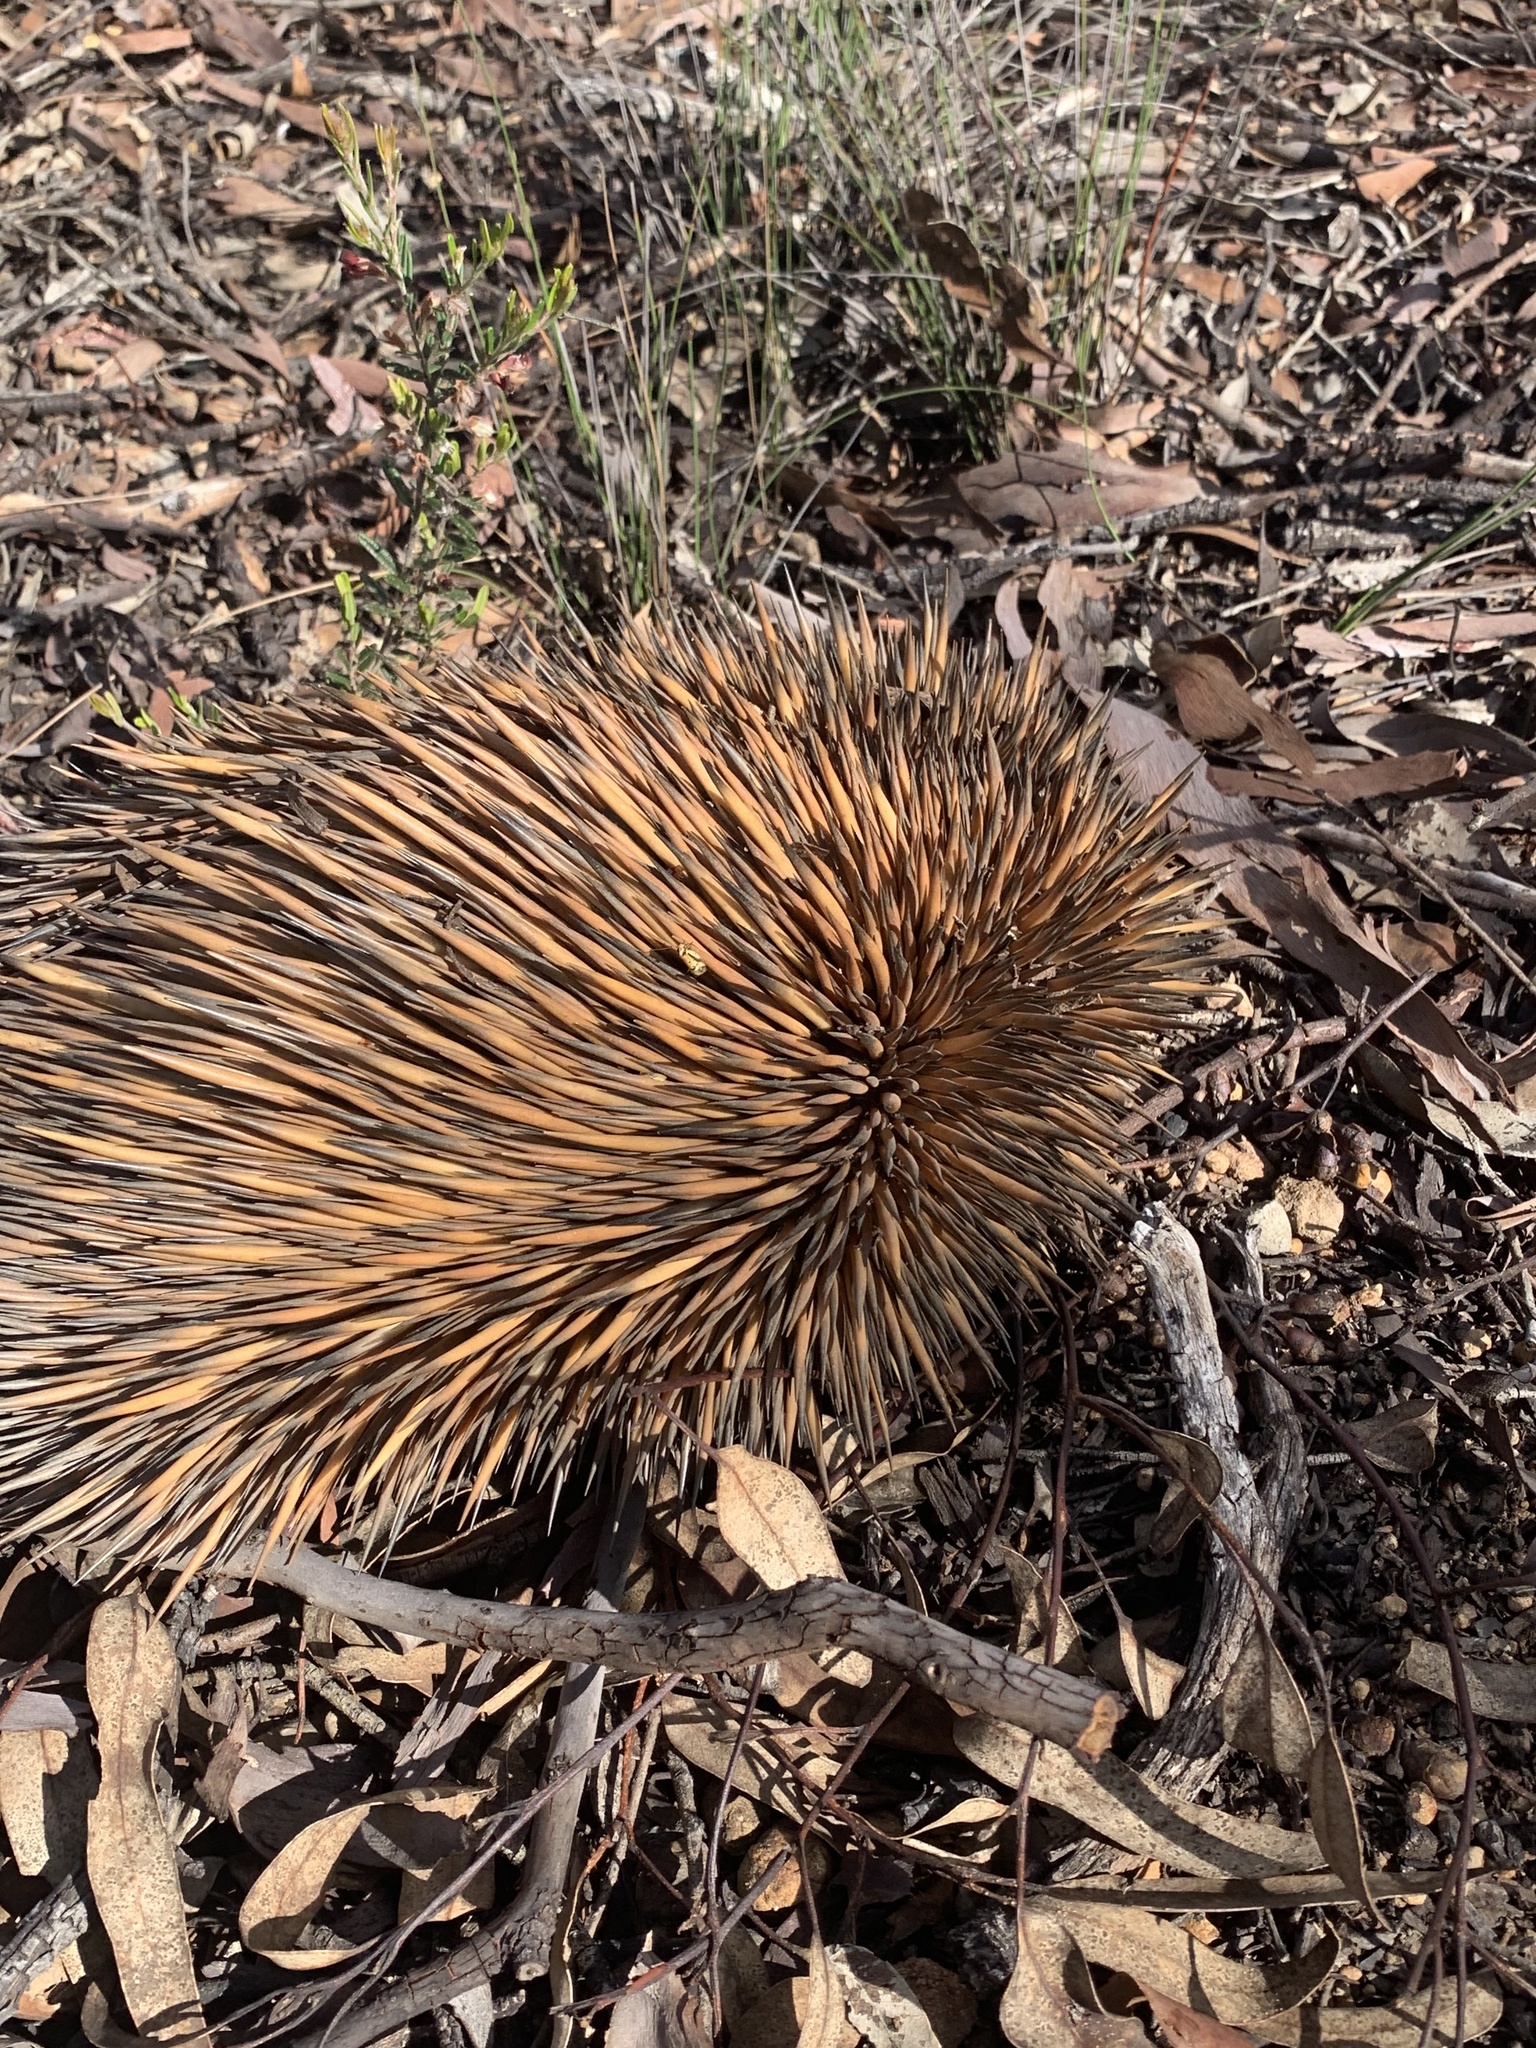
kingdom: Animalia
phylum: Chordata
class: Mammalia
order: Monotremata
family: Tachyglossidae
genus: Tachyglossus
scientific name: Tachyglossus aculeatus
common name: Short-beaked echidna
